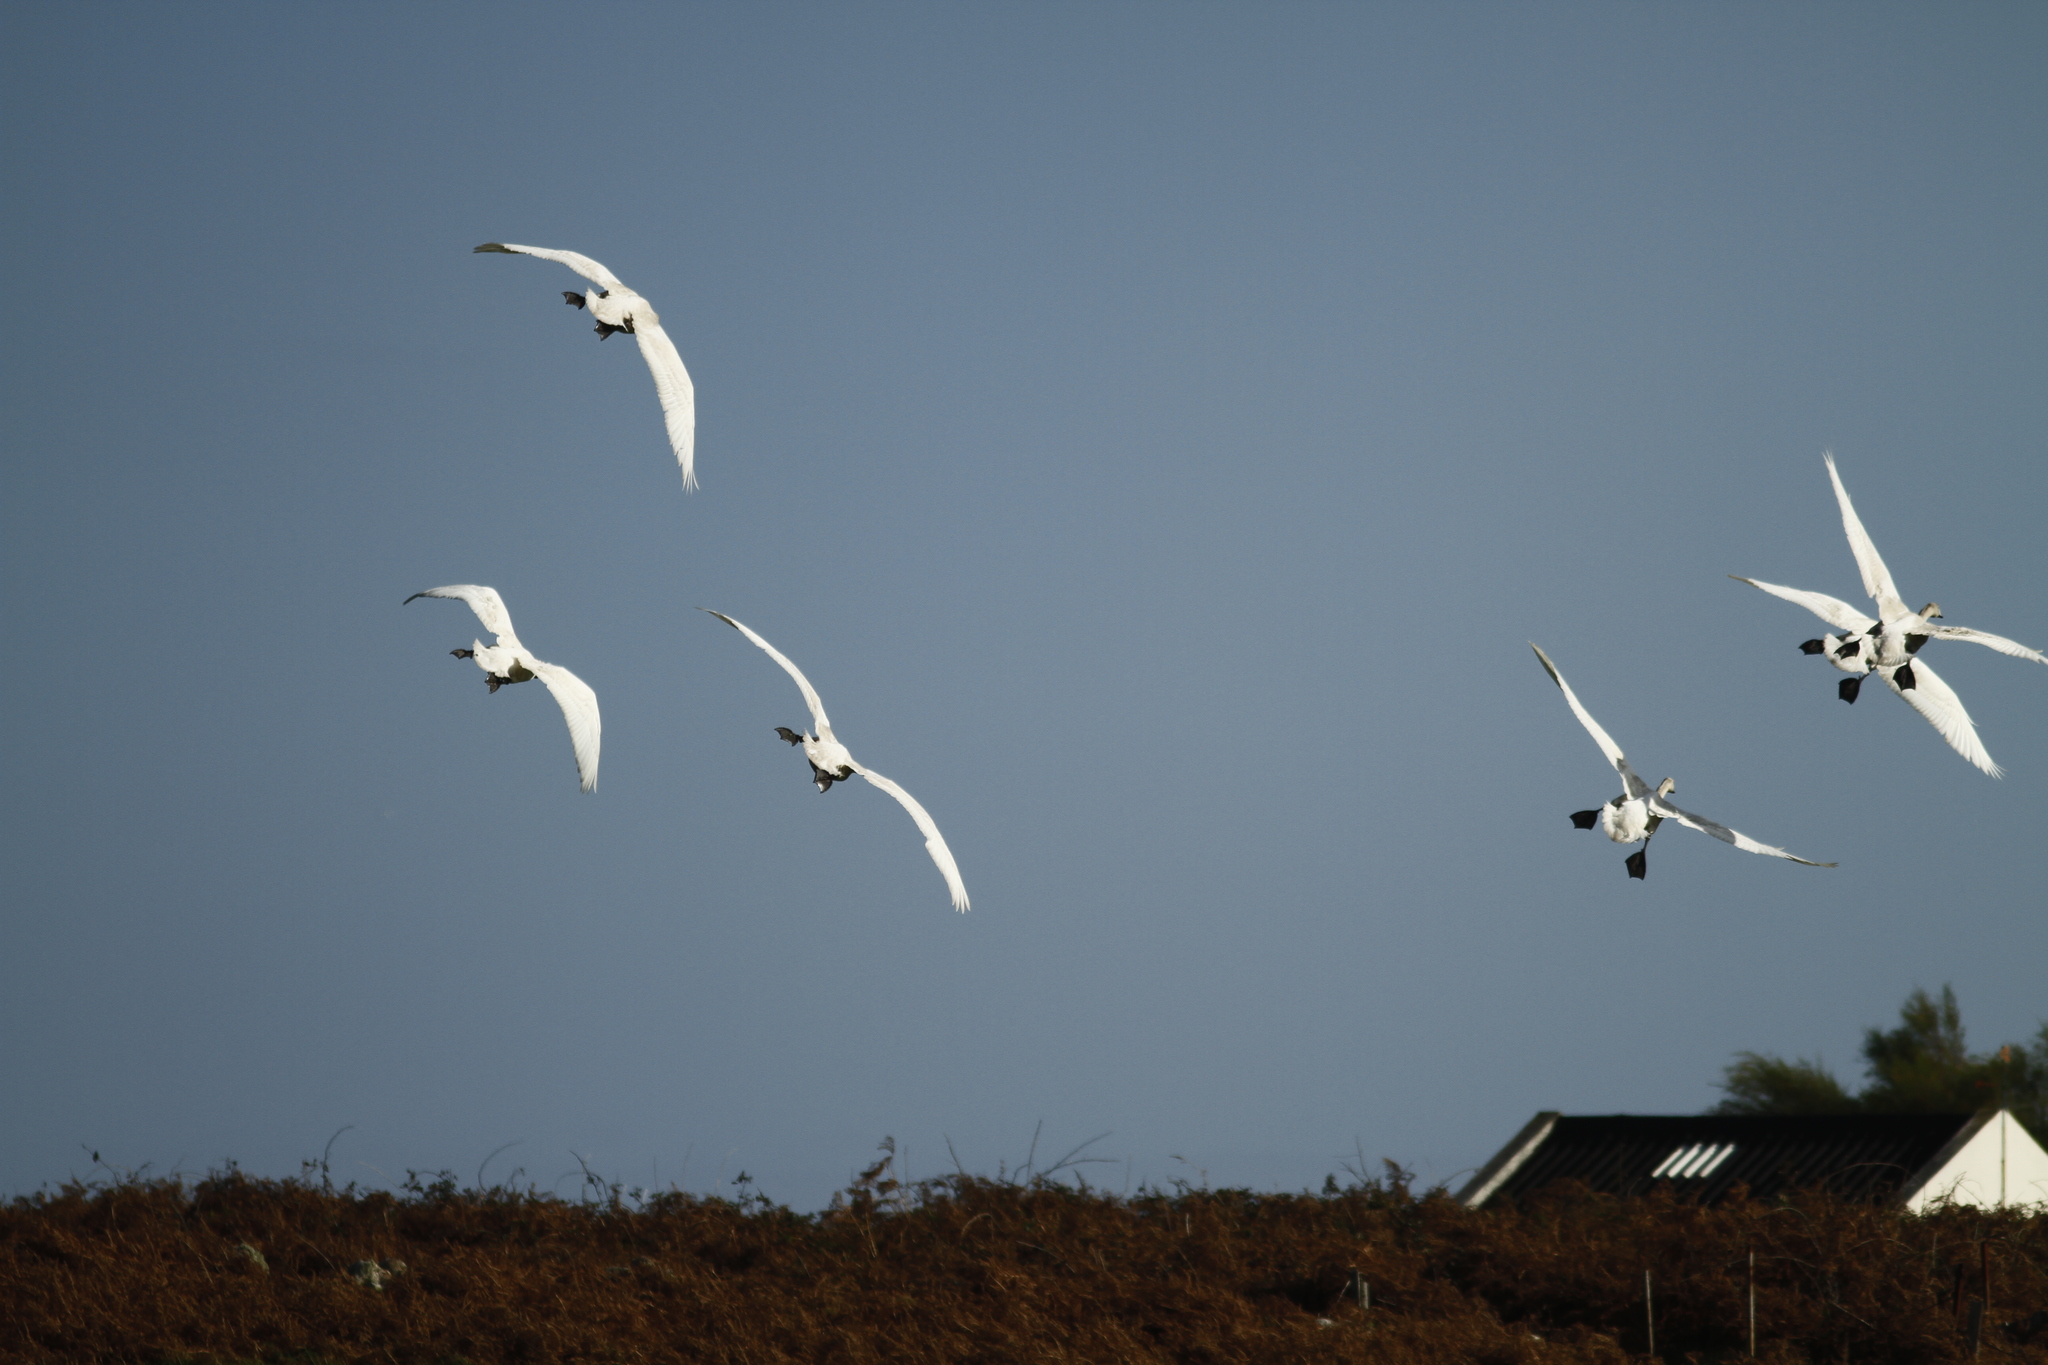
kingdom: Animalia
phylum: Chordata
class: Aves
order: Anseriformes
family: Anatidae
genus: Cygnus
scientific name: Cygnus cygnus
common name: Whooper swan
